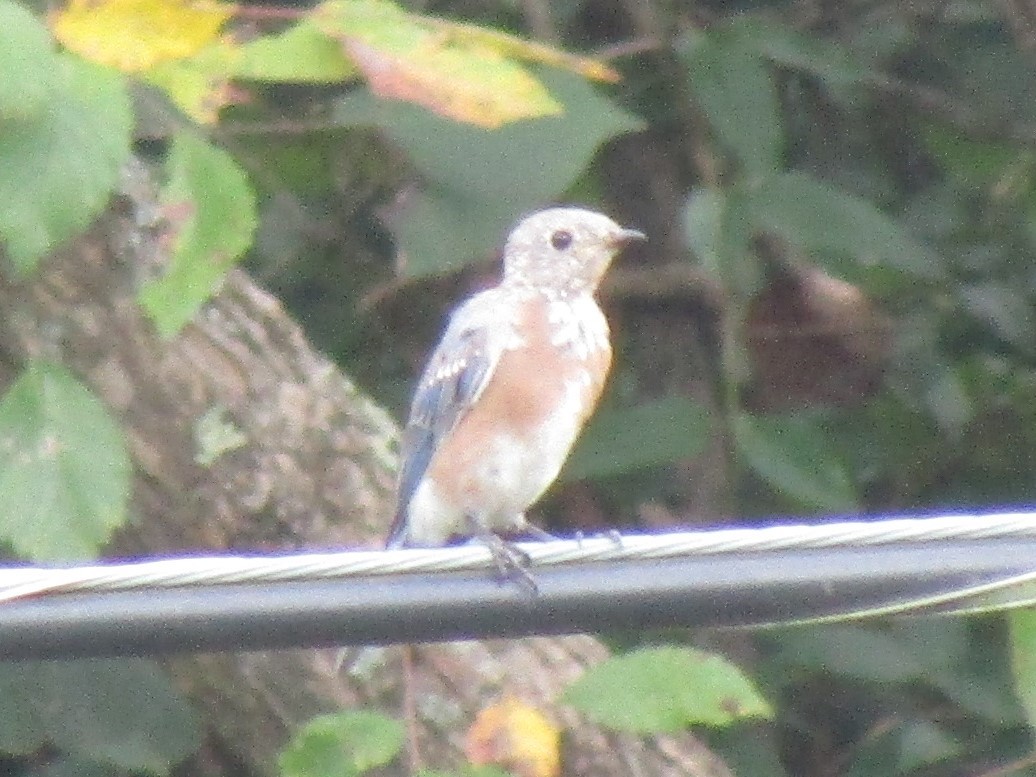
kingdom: Animalia
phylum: Chordata
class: Aves
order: Passeriformes
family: Turdidae
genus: Sialia
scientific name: Sialia sialis
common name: Eastern bluebird
